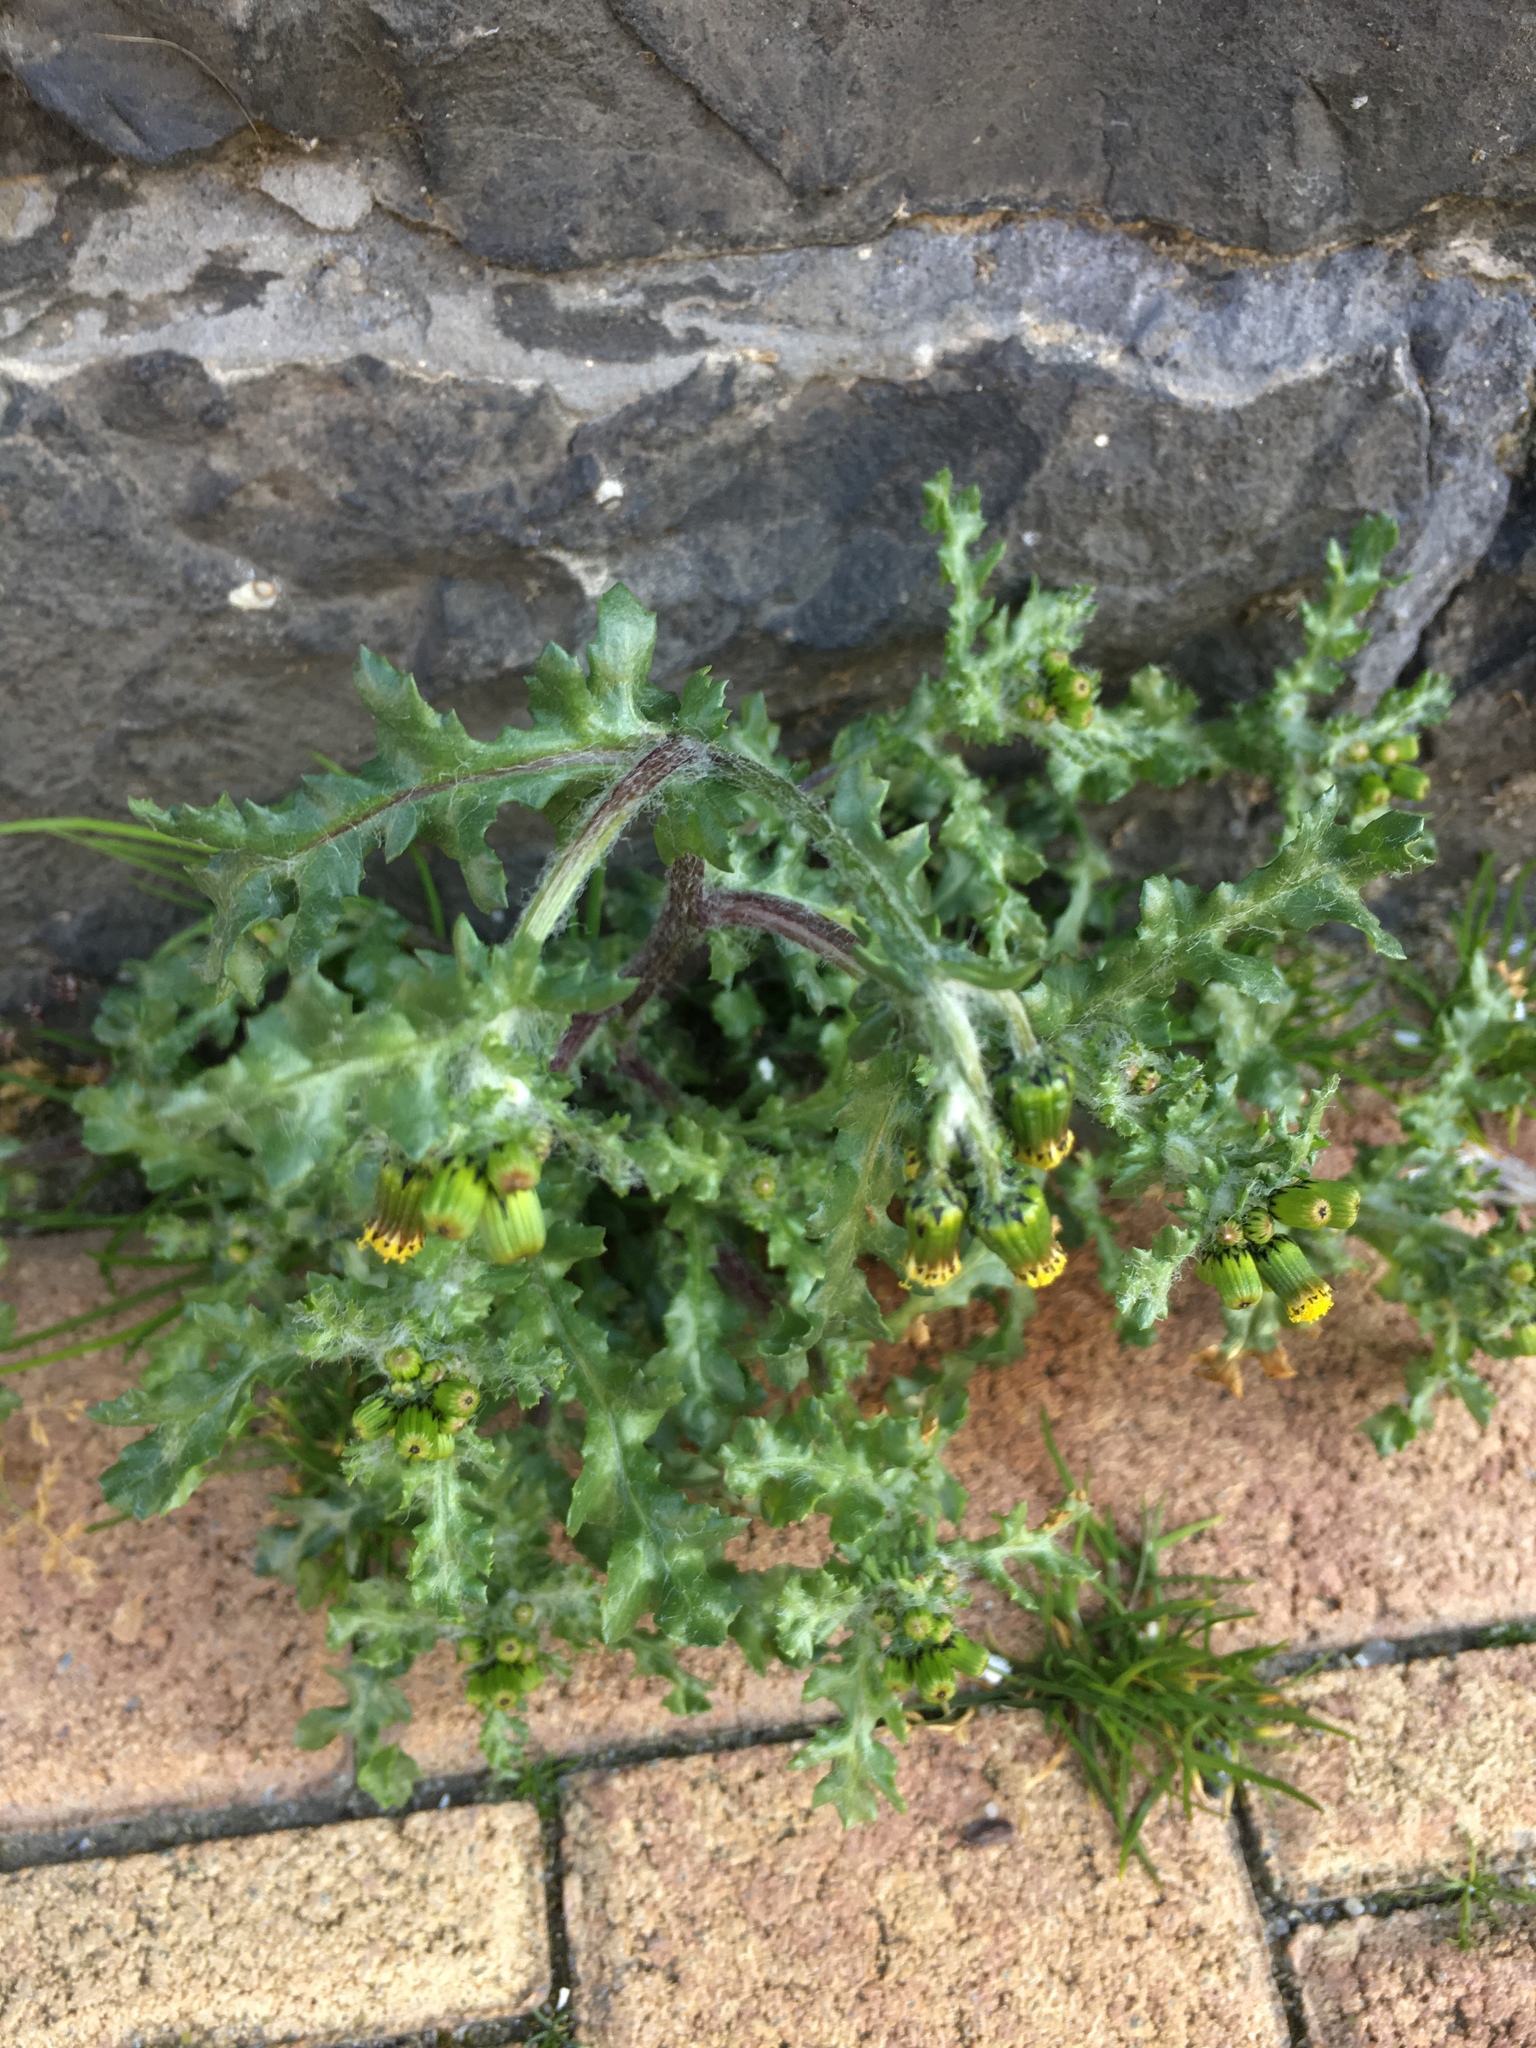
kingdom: Plantae
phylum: Tracheophyta
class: Magnoliopsida
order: Asterales
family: Asteraceae
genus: Senecio
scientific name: Senecio vulgaris
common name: Old-man-in-the-spring
